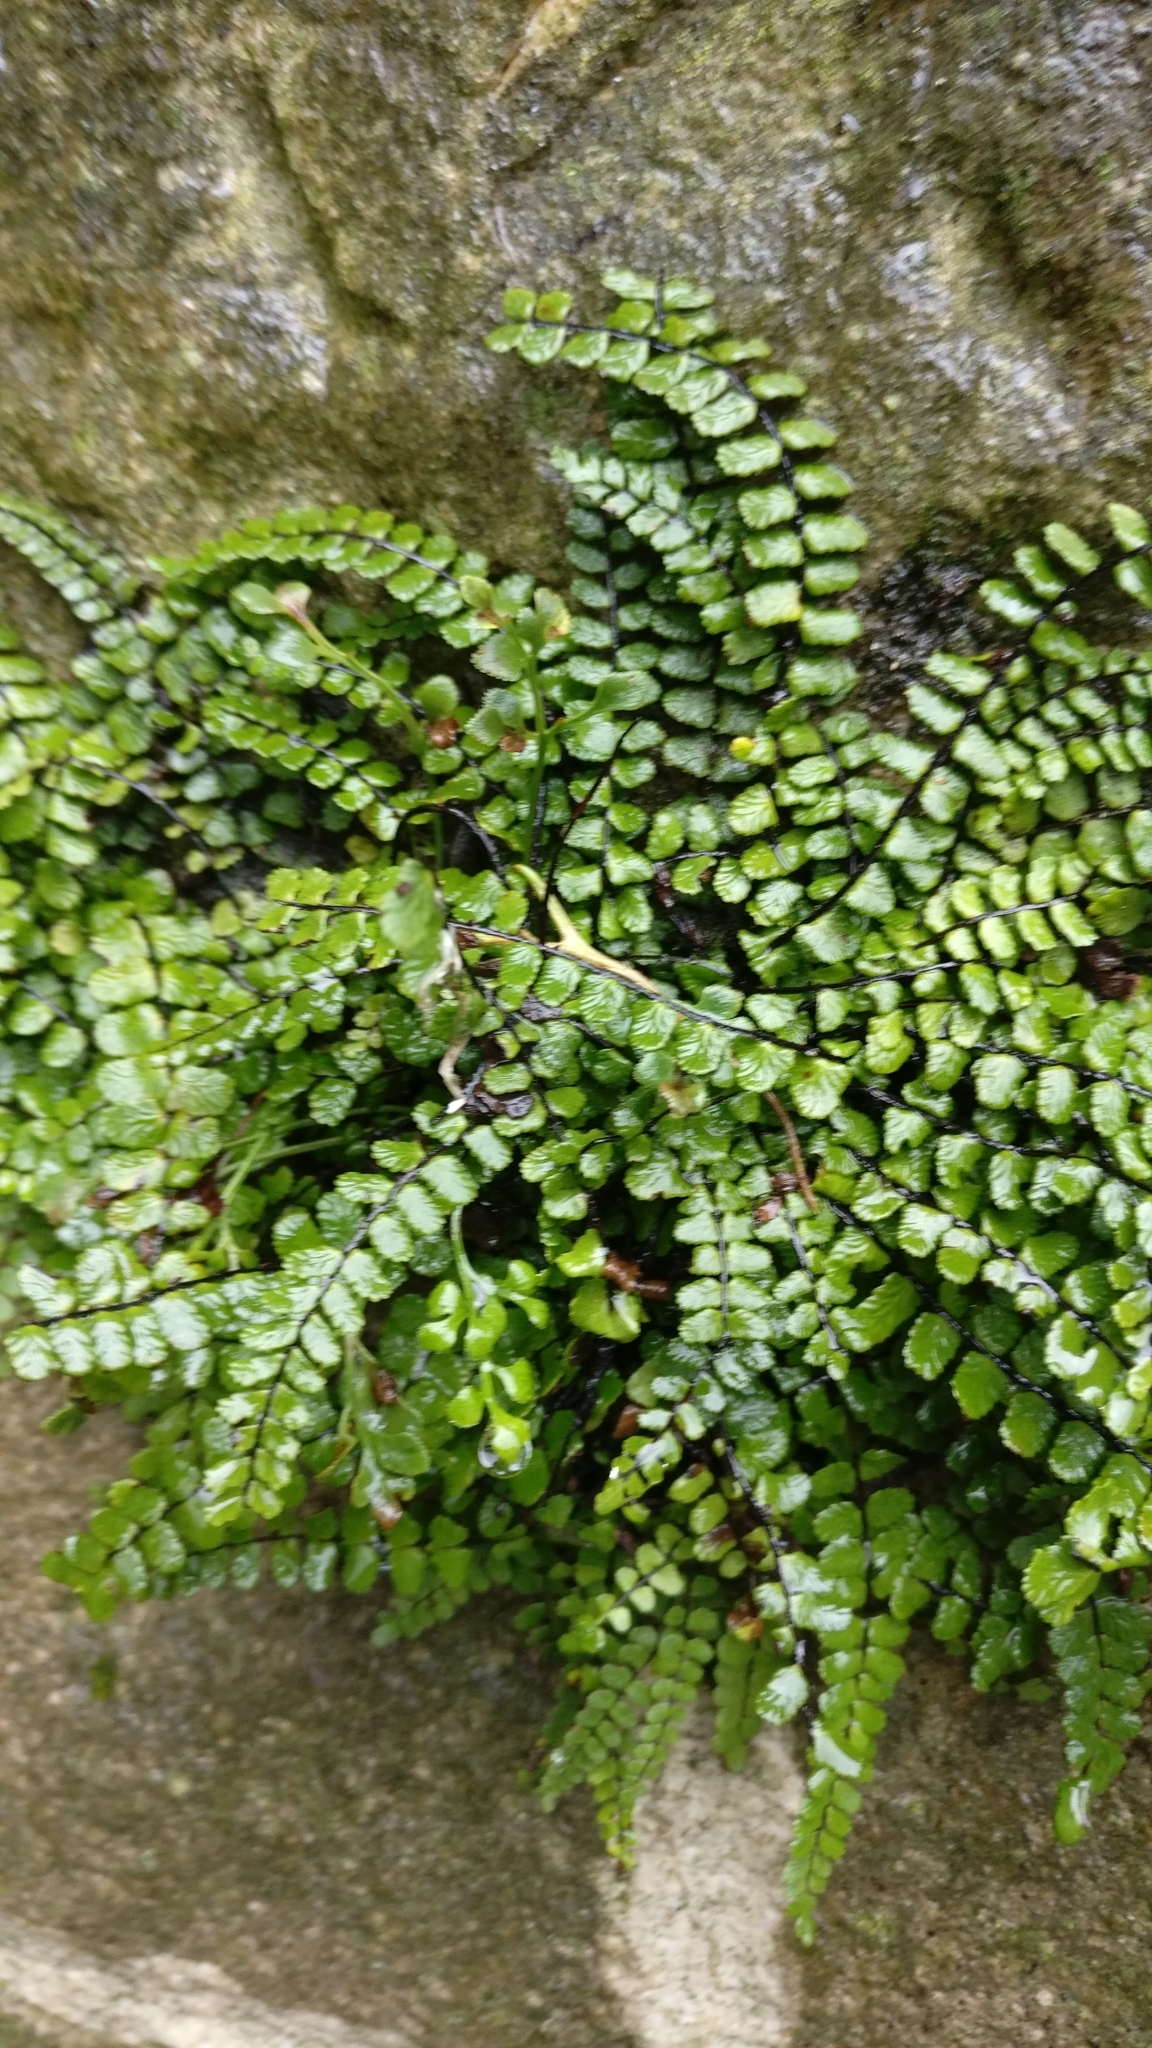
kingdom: Plantae
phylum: Tracheophyta
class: Polypodiopsida
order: Polypodiales
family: Aspleniaceae
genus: Asplenium
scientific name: Asplenium trichomanes
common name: Maidenhair spleenwort
